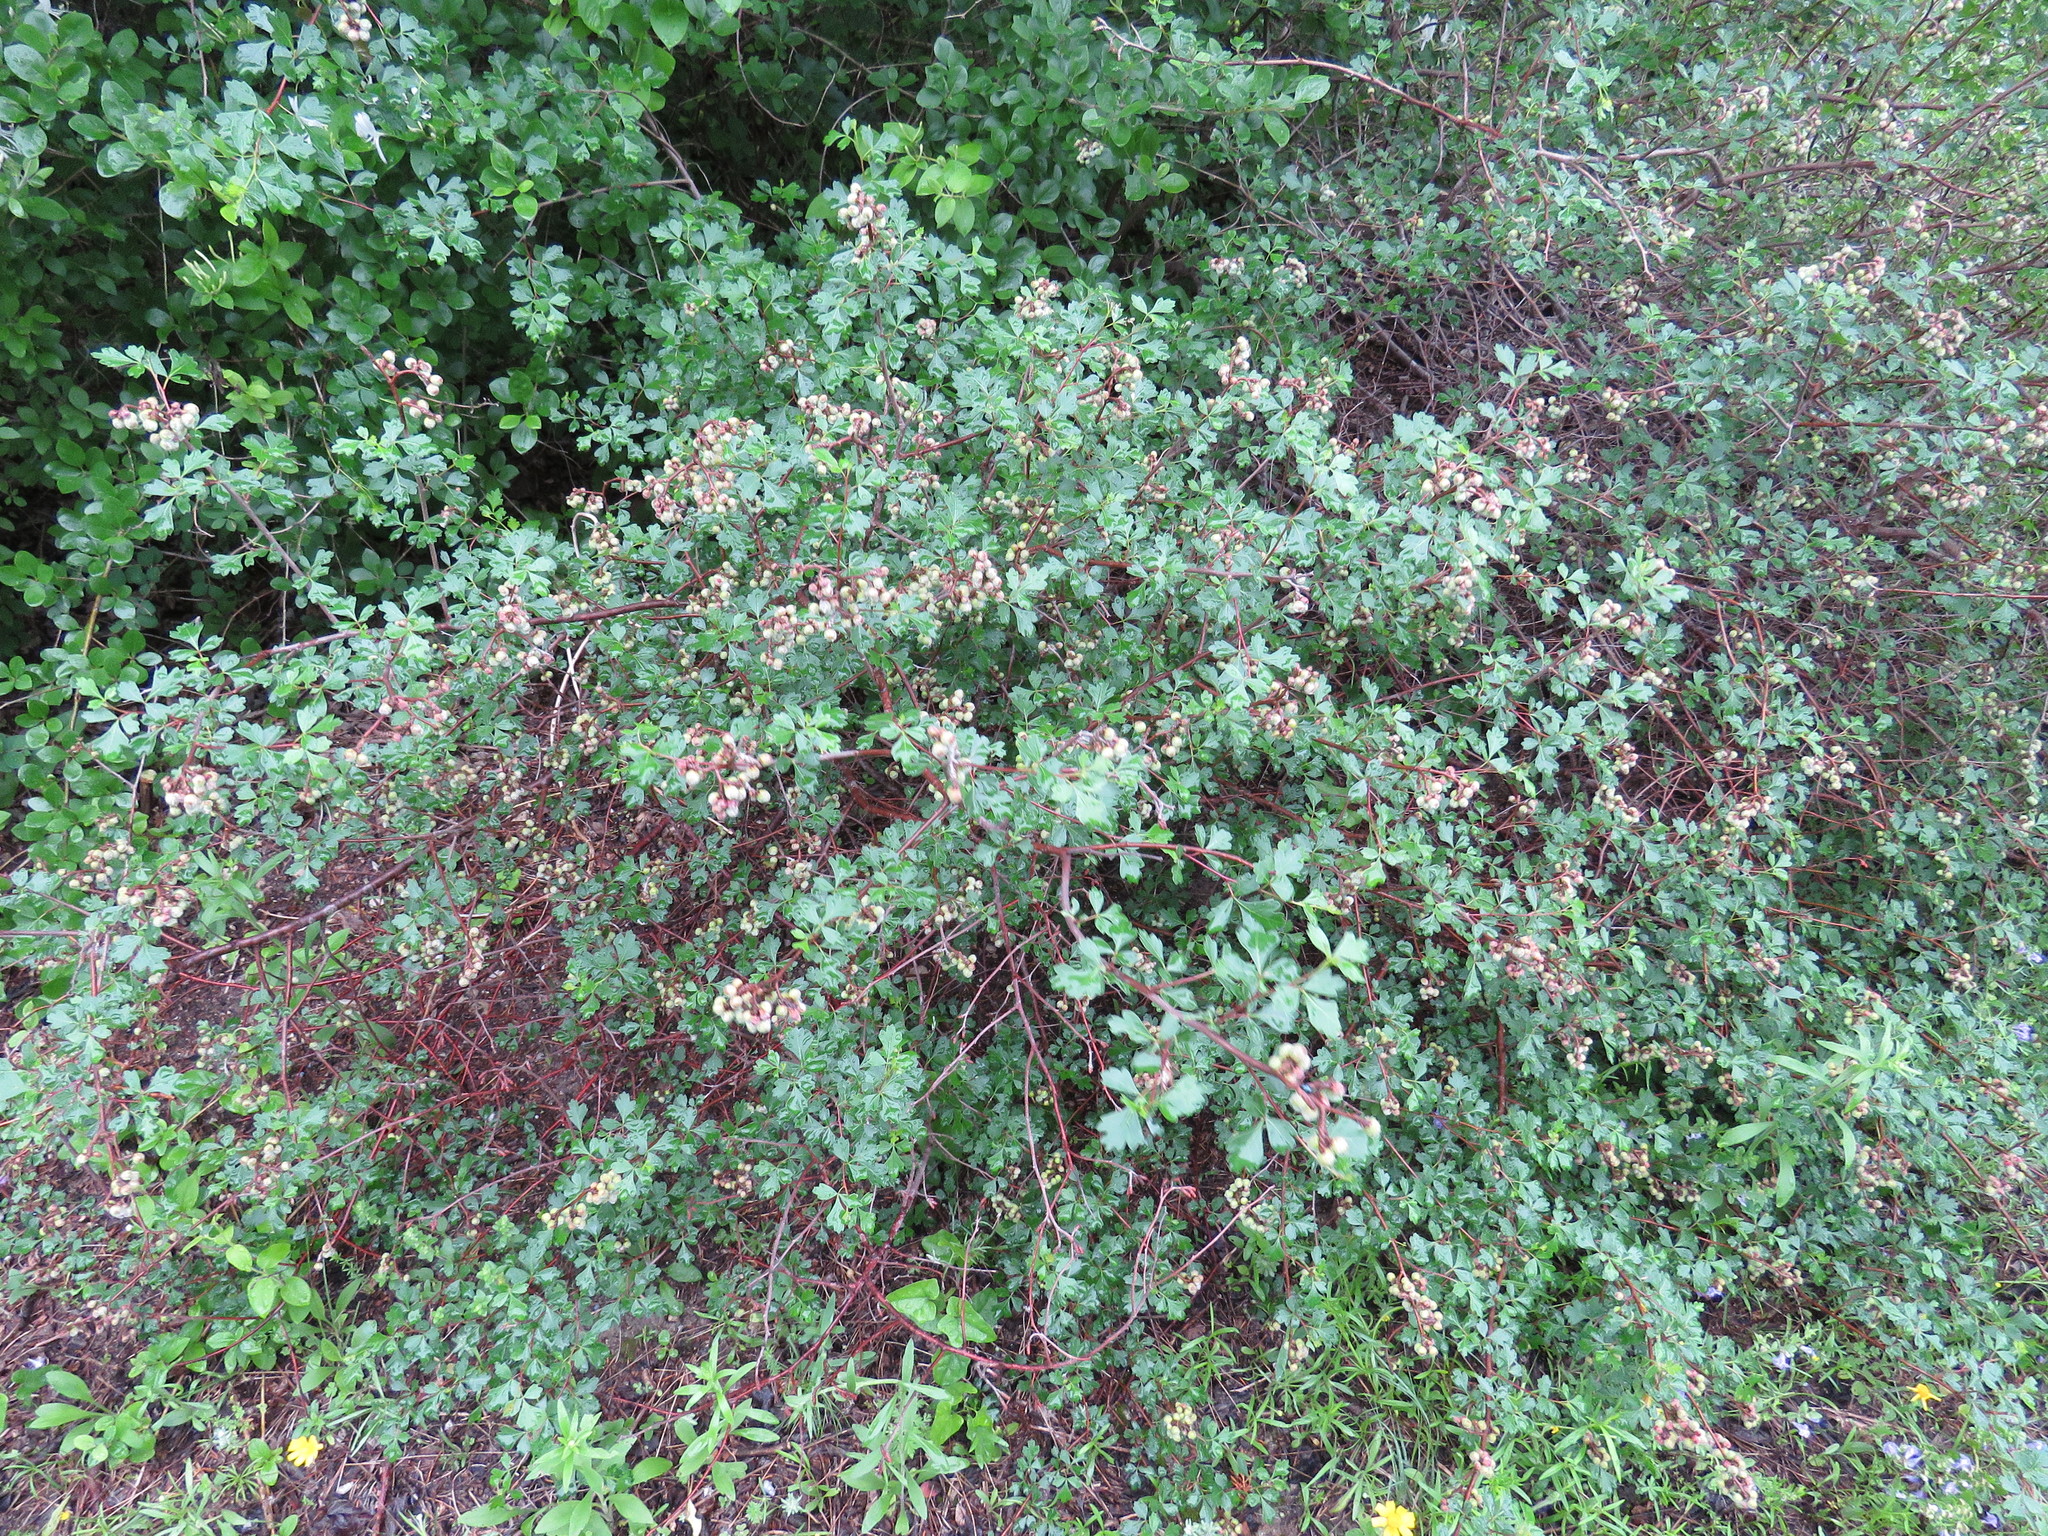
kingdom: Plantae
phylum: Tracheophyta
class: Magnoliopsida
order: Sapindales
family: Anacardiaceae
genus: Rhus
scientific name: Rhus aromatica
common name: Aromatic sumac
